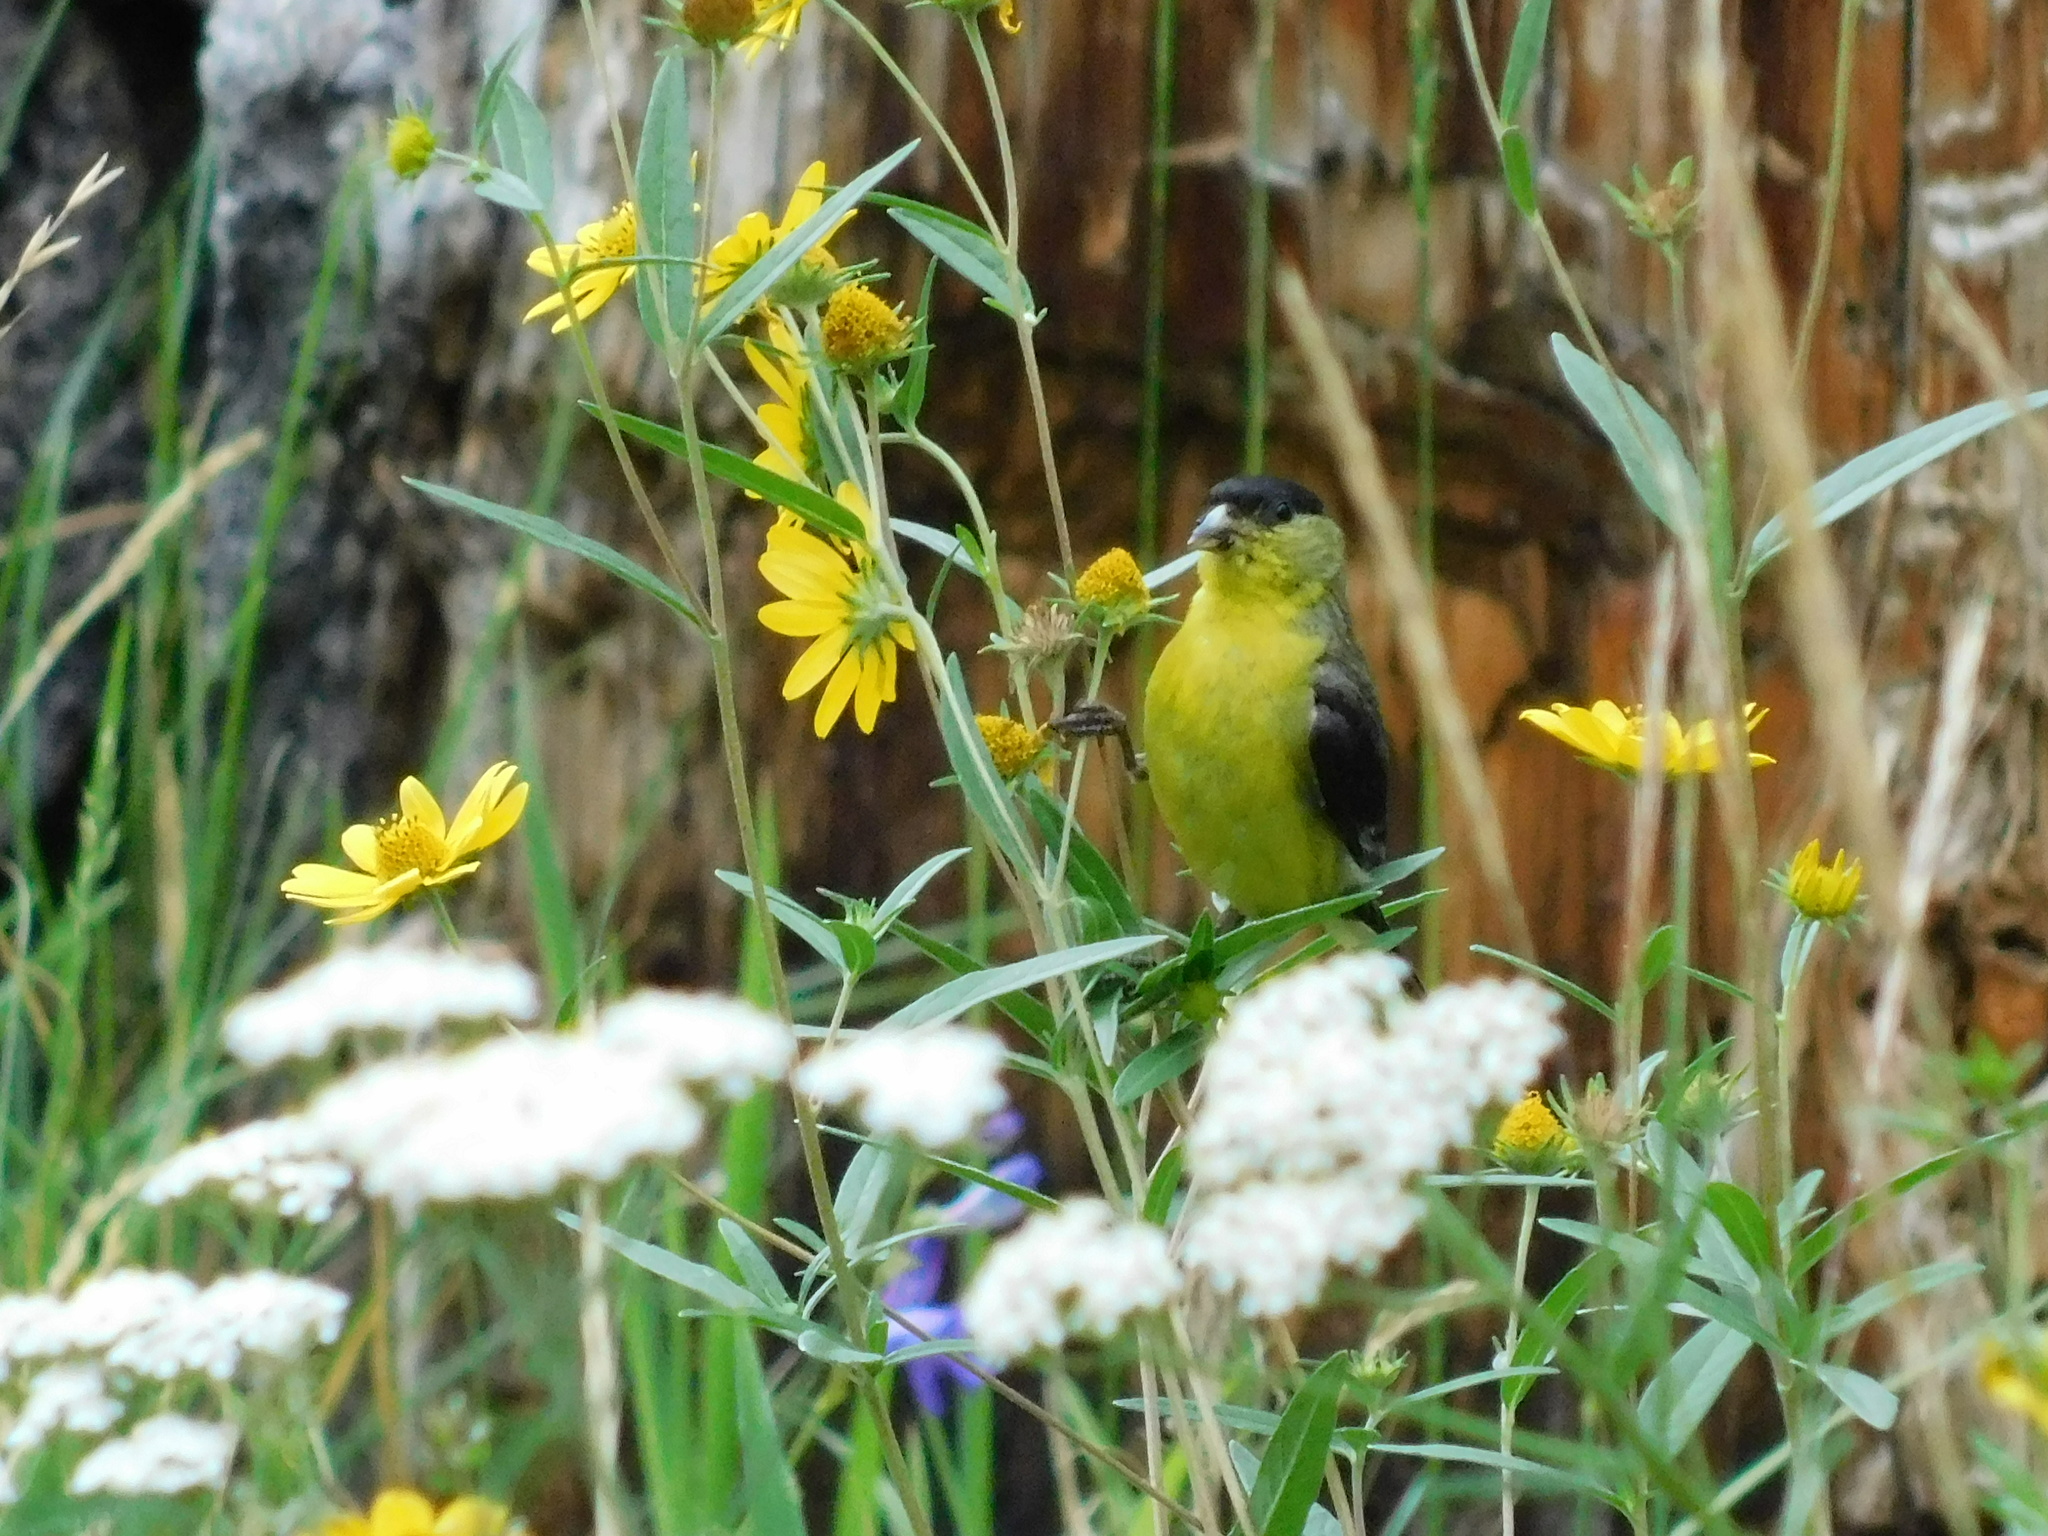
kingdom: Animalia
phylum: Chordata
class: Aves
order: Passeriformes
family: Fringillidae
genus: Spinus
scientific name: Spinus psaltria
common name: Lesser goldfinch
